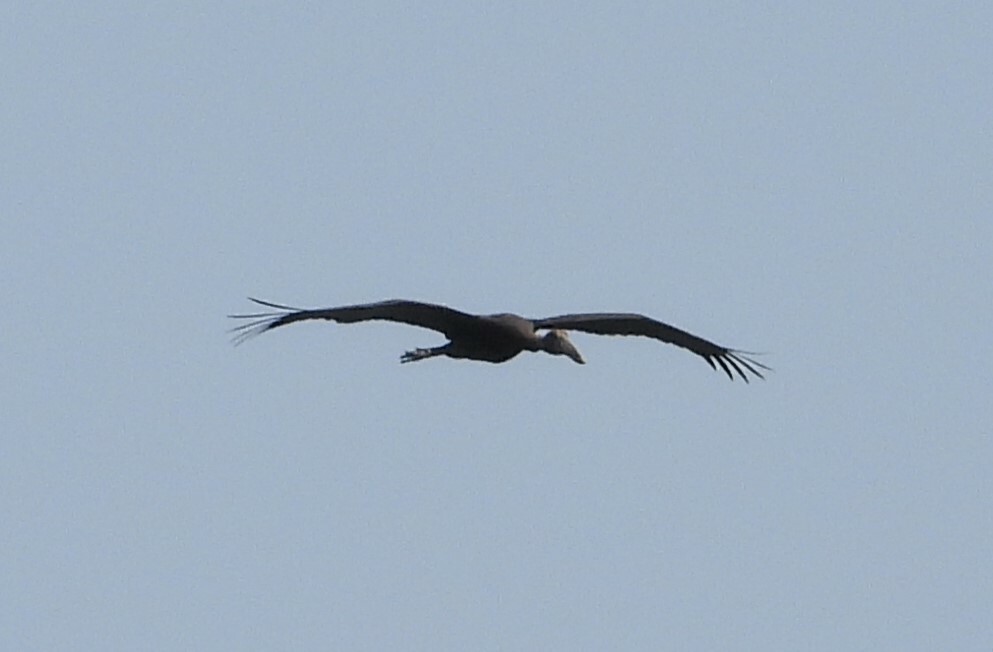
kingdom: Animalia
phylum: Chordata
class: Aves
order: Ciconiiformes
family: Ciconiidae
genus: Anastomus
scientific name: Anastomus lamelligerus
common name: African openbill
